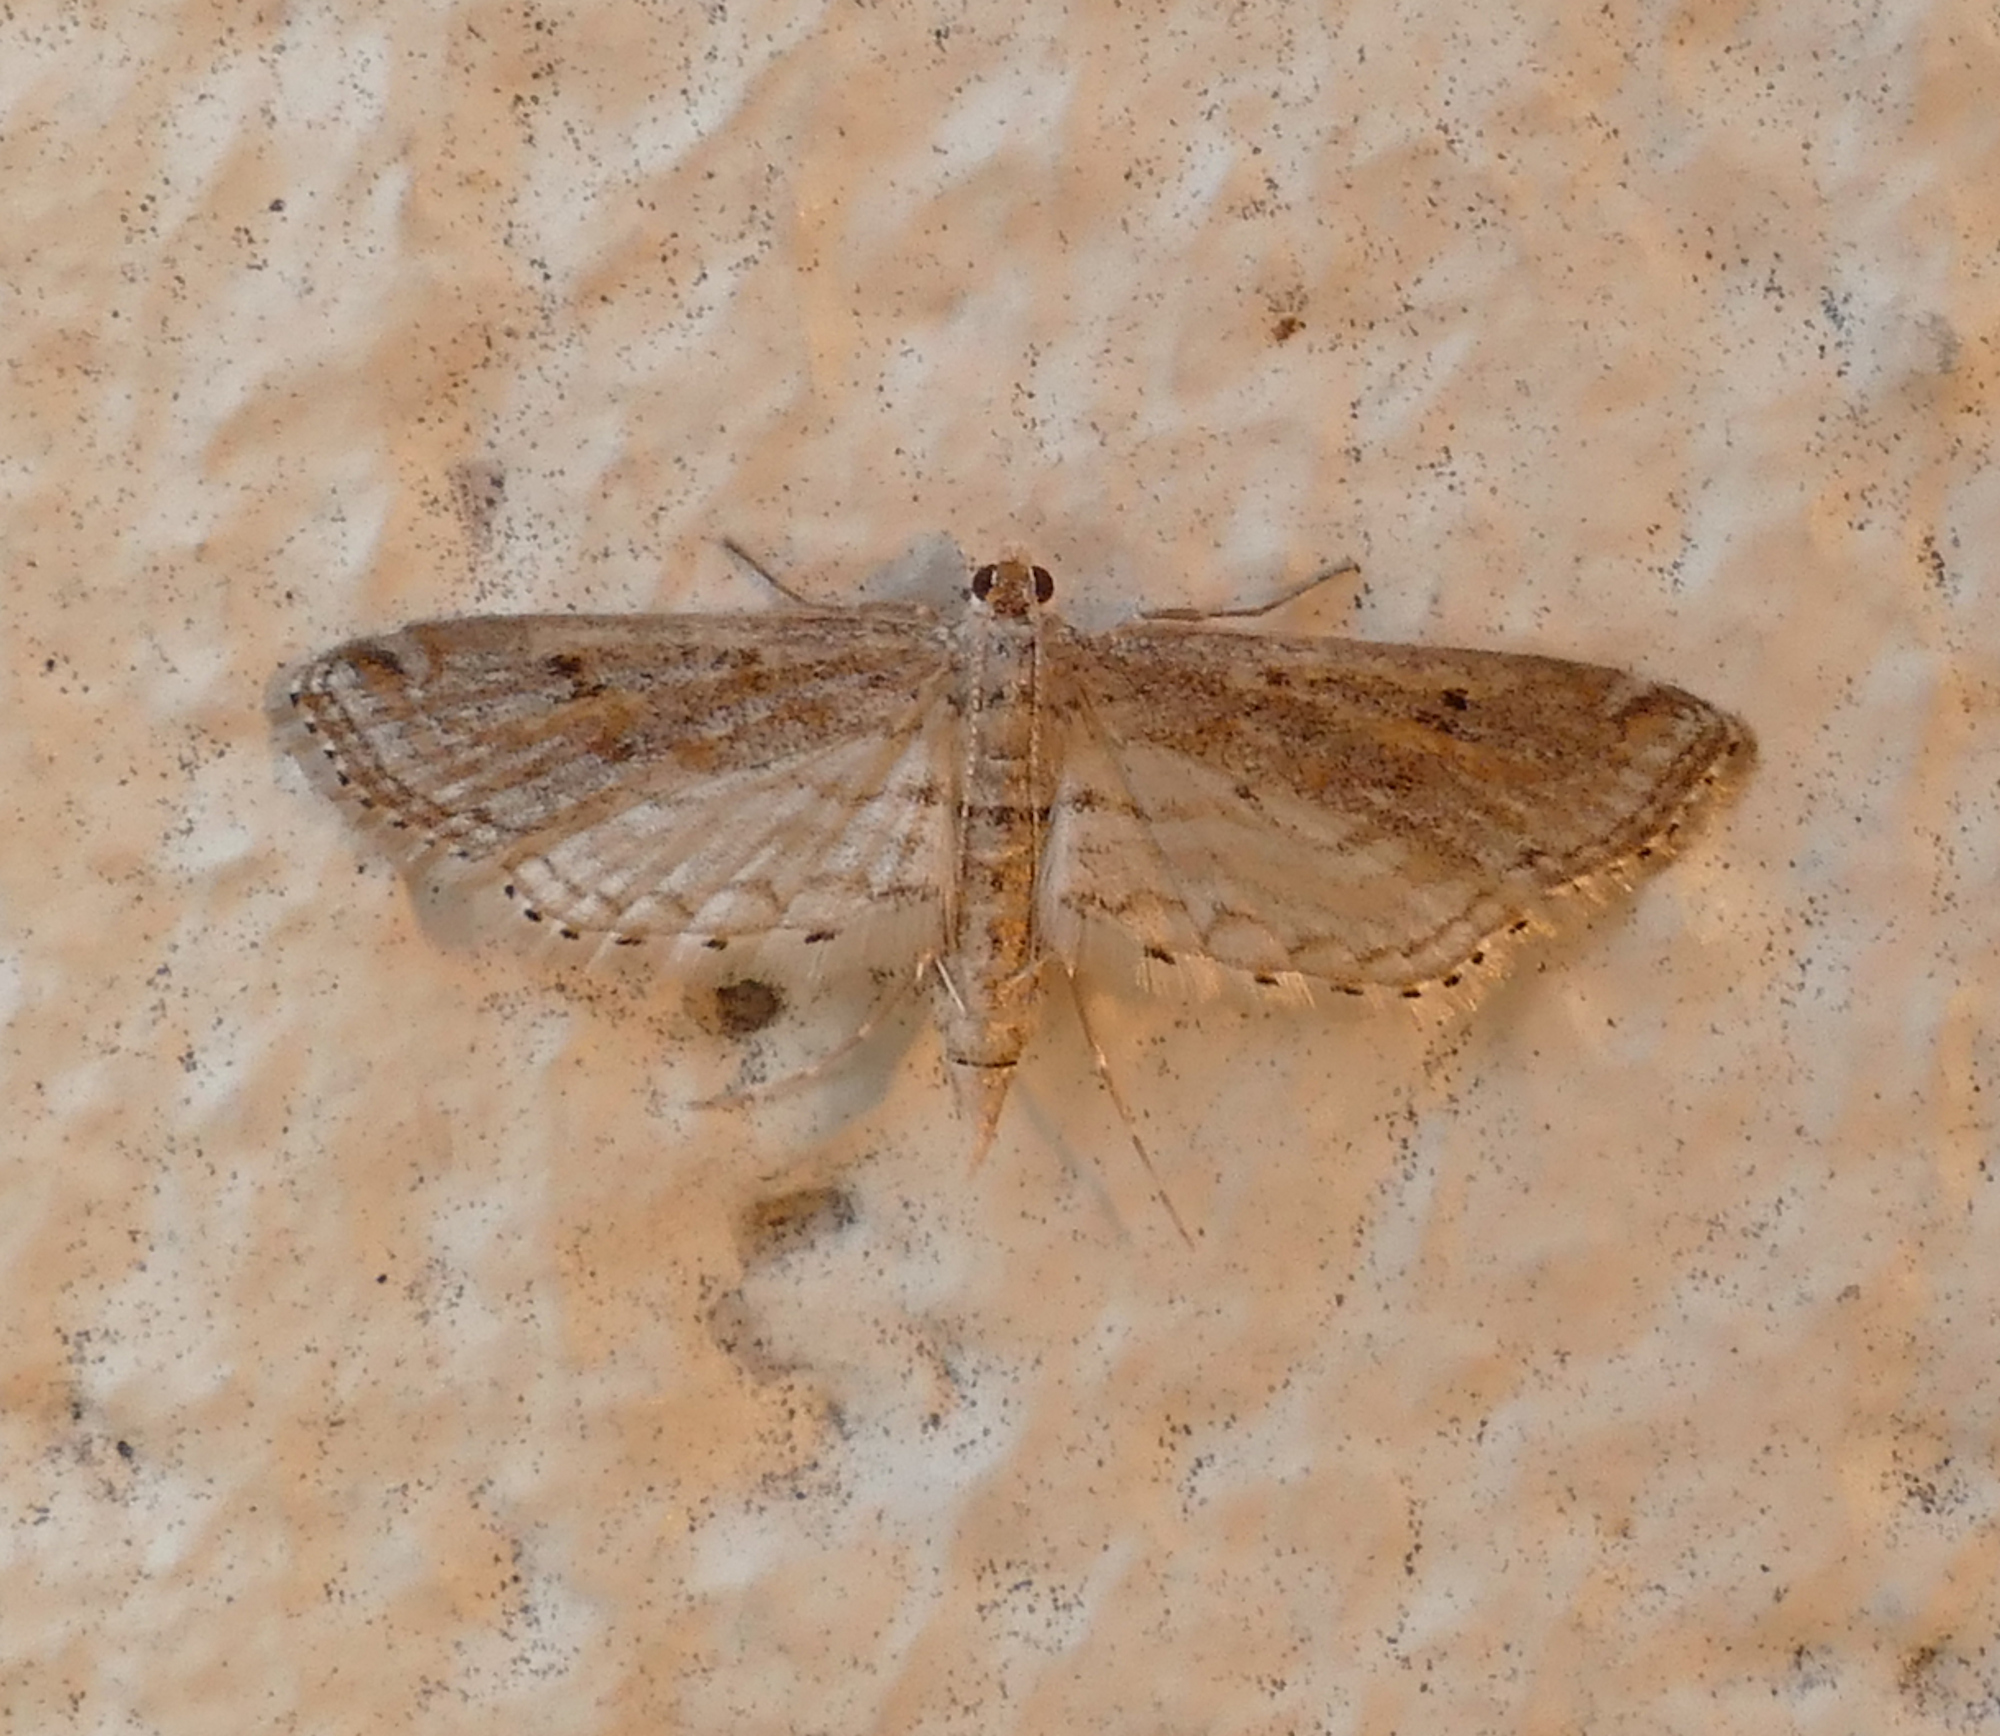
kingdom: Animalia
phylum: Arthropoda
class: Insecta
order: Lepidoptera
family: Crambidae
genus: Parapoynx
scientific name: Parapoynx allionealis
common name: Bladderwort casemaker
